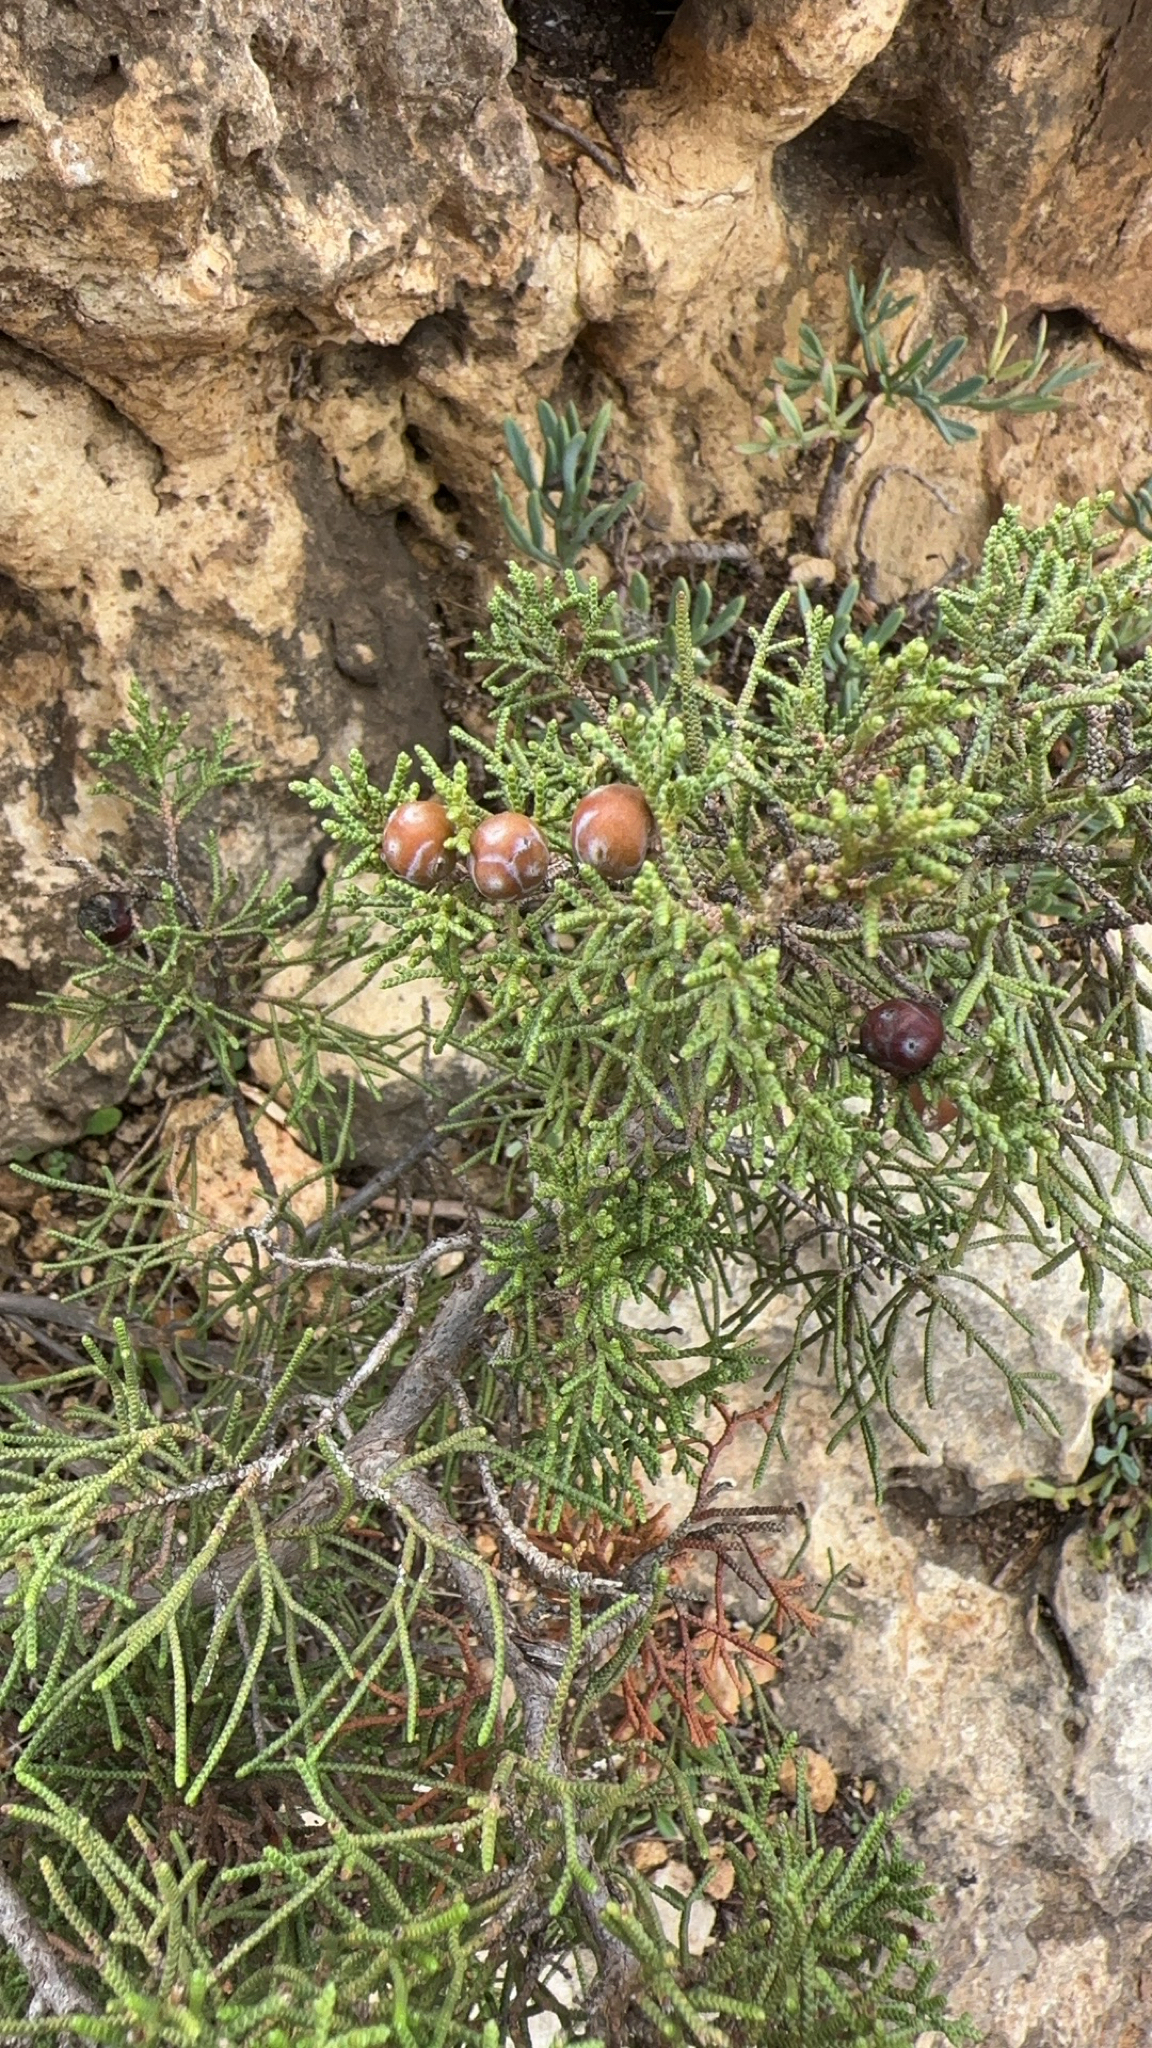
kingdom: Plantae
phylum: Tracheophyta
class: Pinopsida
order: Pinales
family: Cupressaceae
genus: Juniperus
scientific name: Juniperus phoenicea
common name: Phoenician juniper
